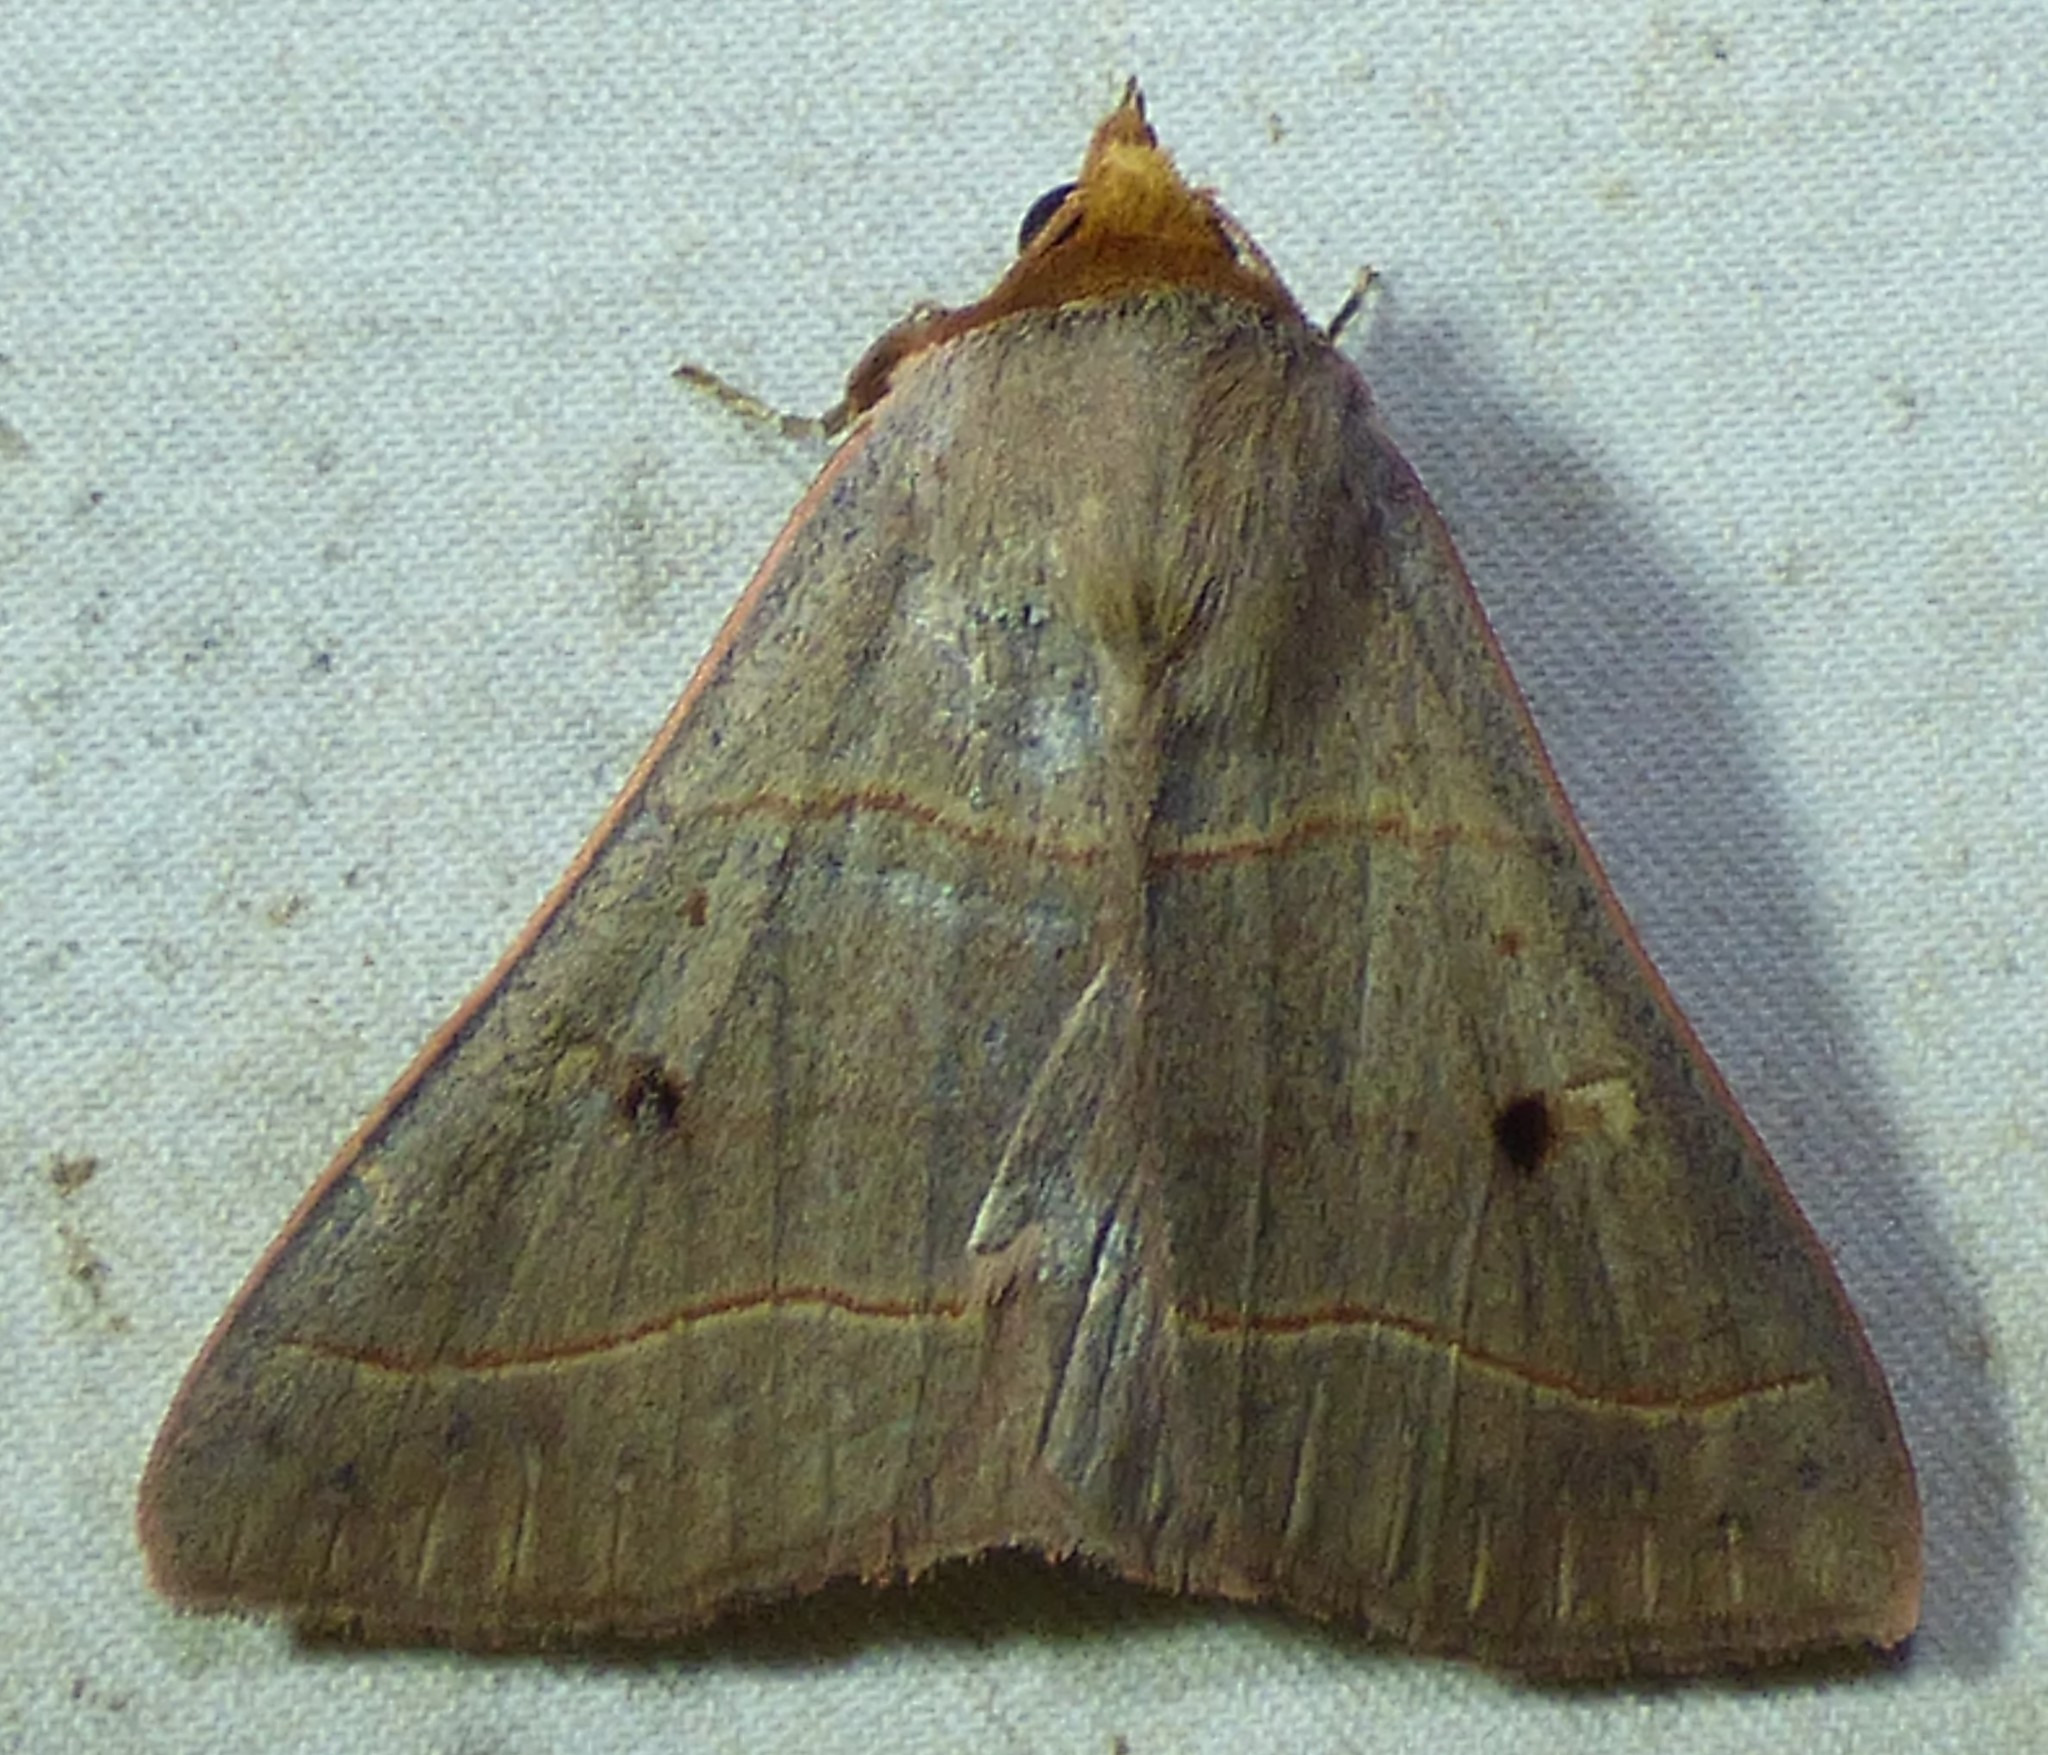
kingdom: Animalia
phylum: Arthropoda
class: Insecta
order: Lepidoptera
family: Erebidae
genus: Panopoda
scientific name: Panopoda rufimargo
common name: Red-lined panopoda moth
